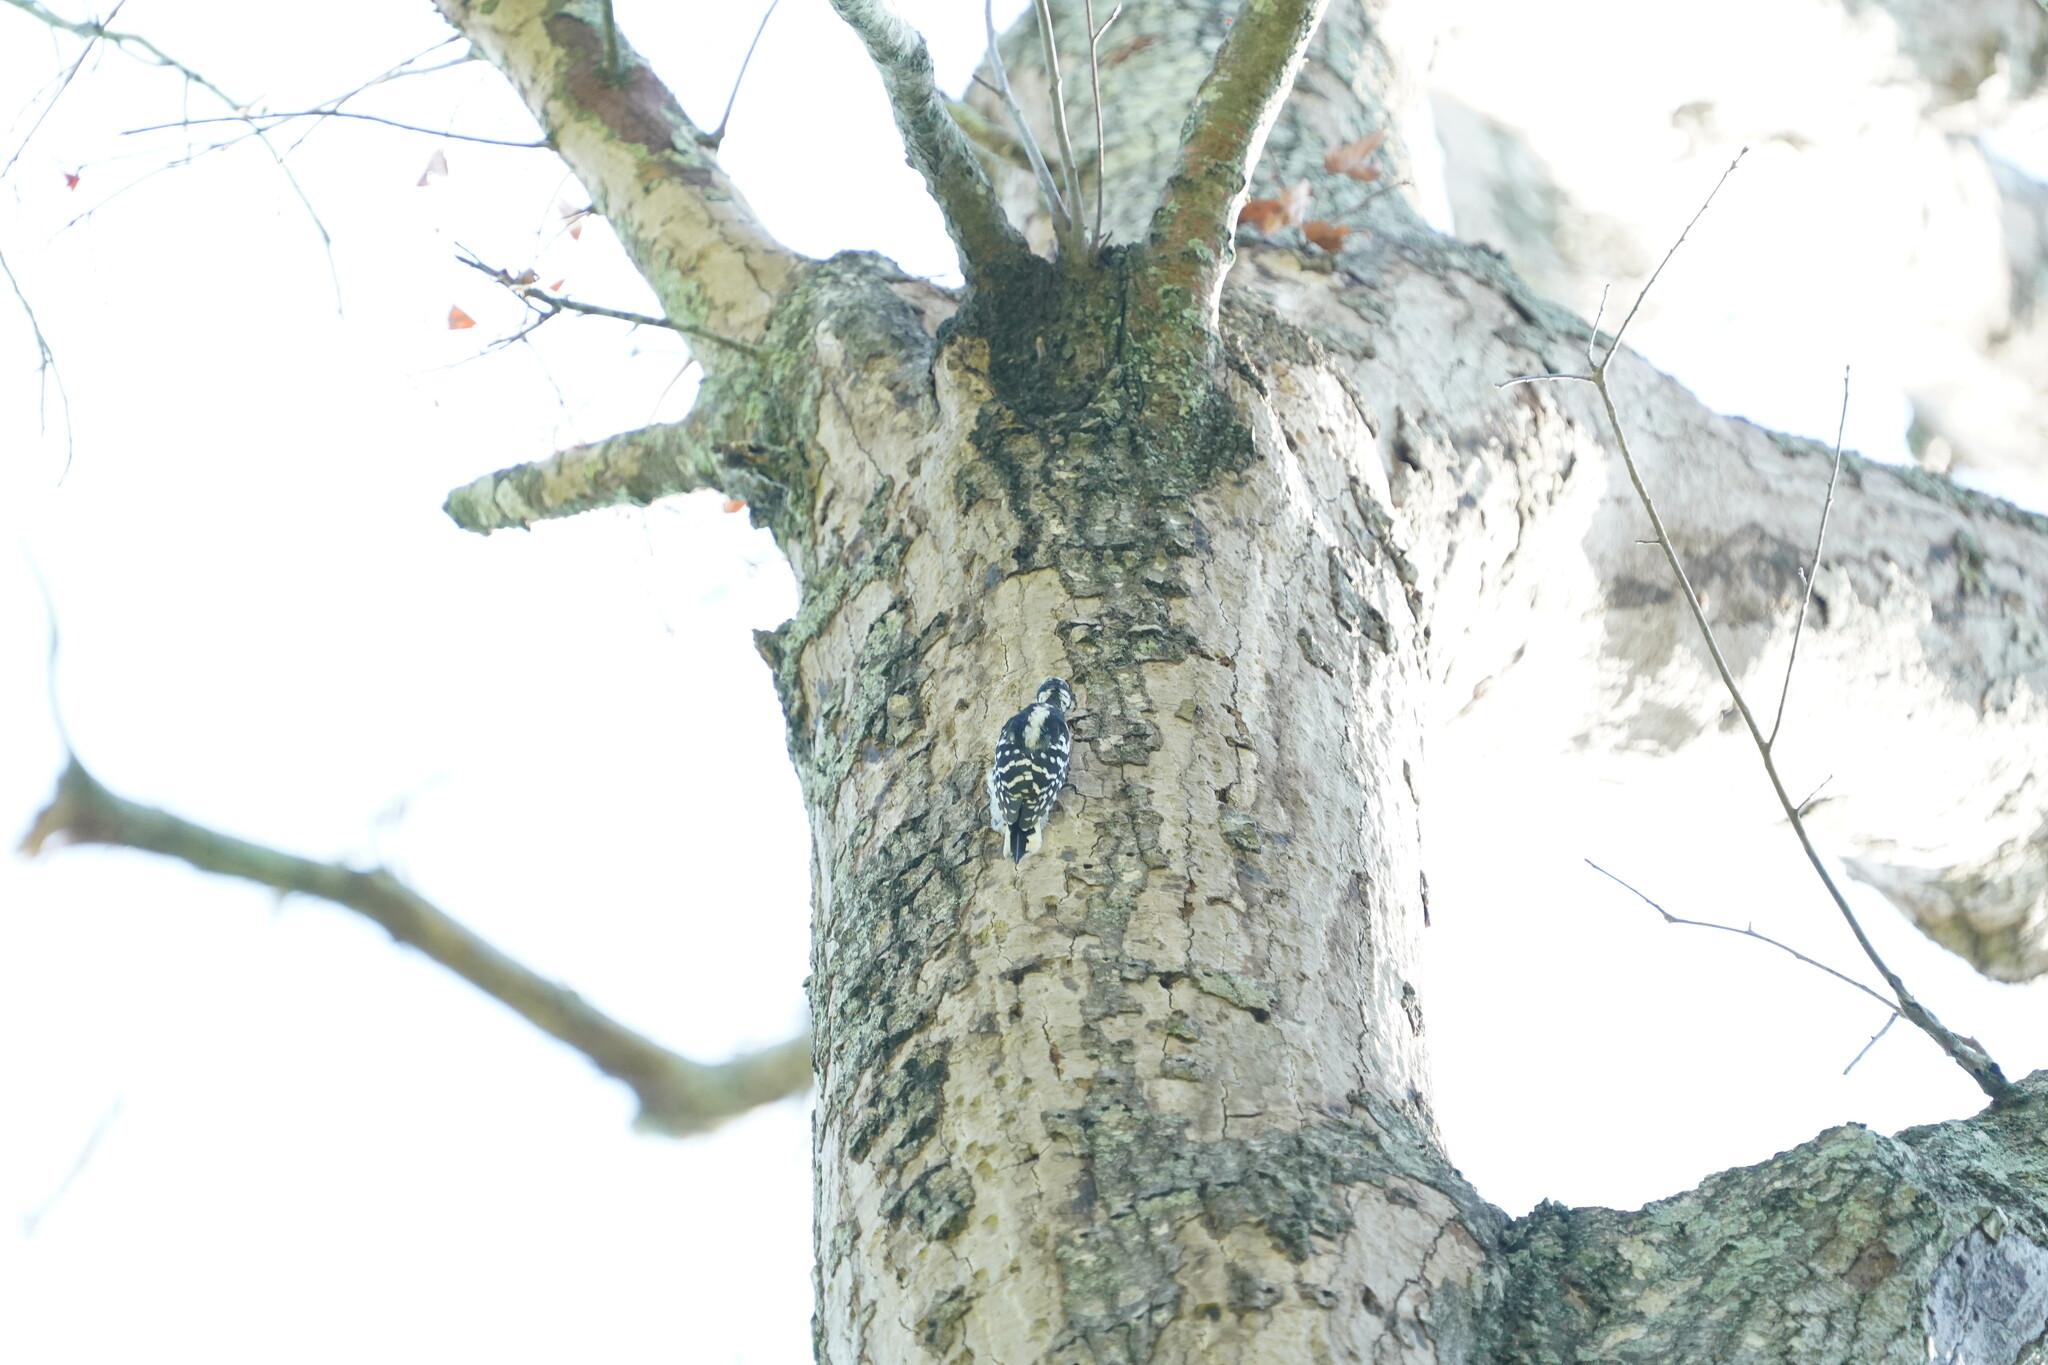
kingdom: Animalia
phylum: Chordata
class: Aves
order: Piciformes
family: Picidae
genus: Dryobates
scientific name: Dryobates pubescens
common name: Downy woodpecker
